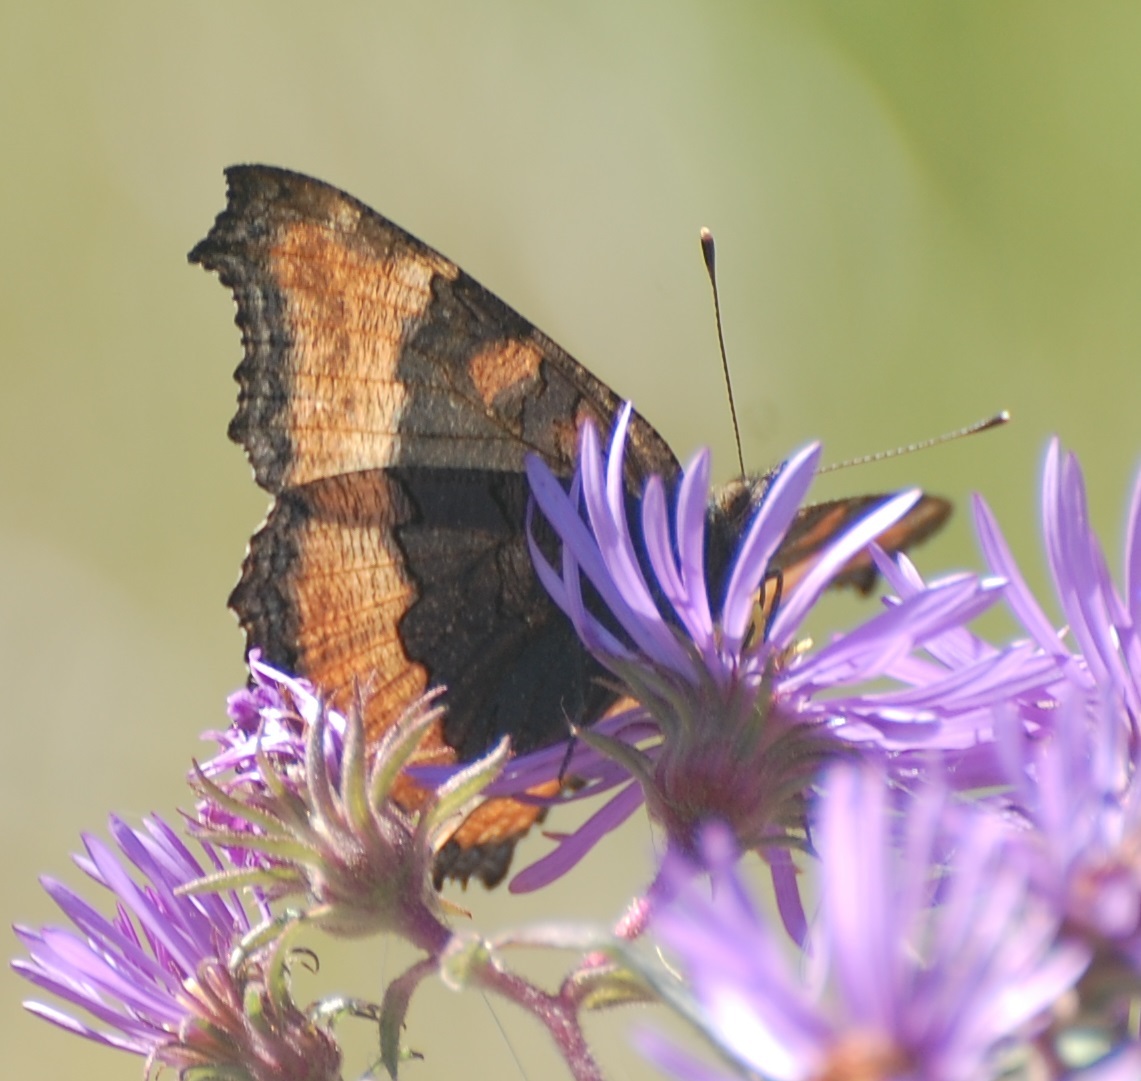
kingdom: Animalia
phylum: Arthropoda
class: Insecta
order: Lepidoptera
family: Nymphalidae
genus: Aglais
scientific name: Aglais milberti
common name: Milbert's tortoiseshell
